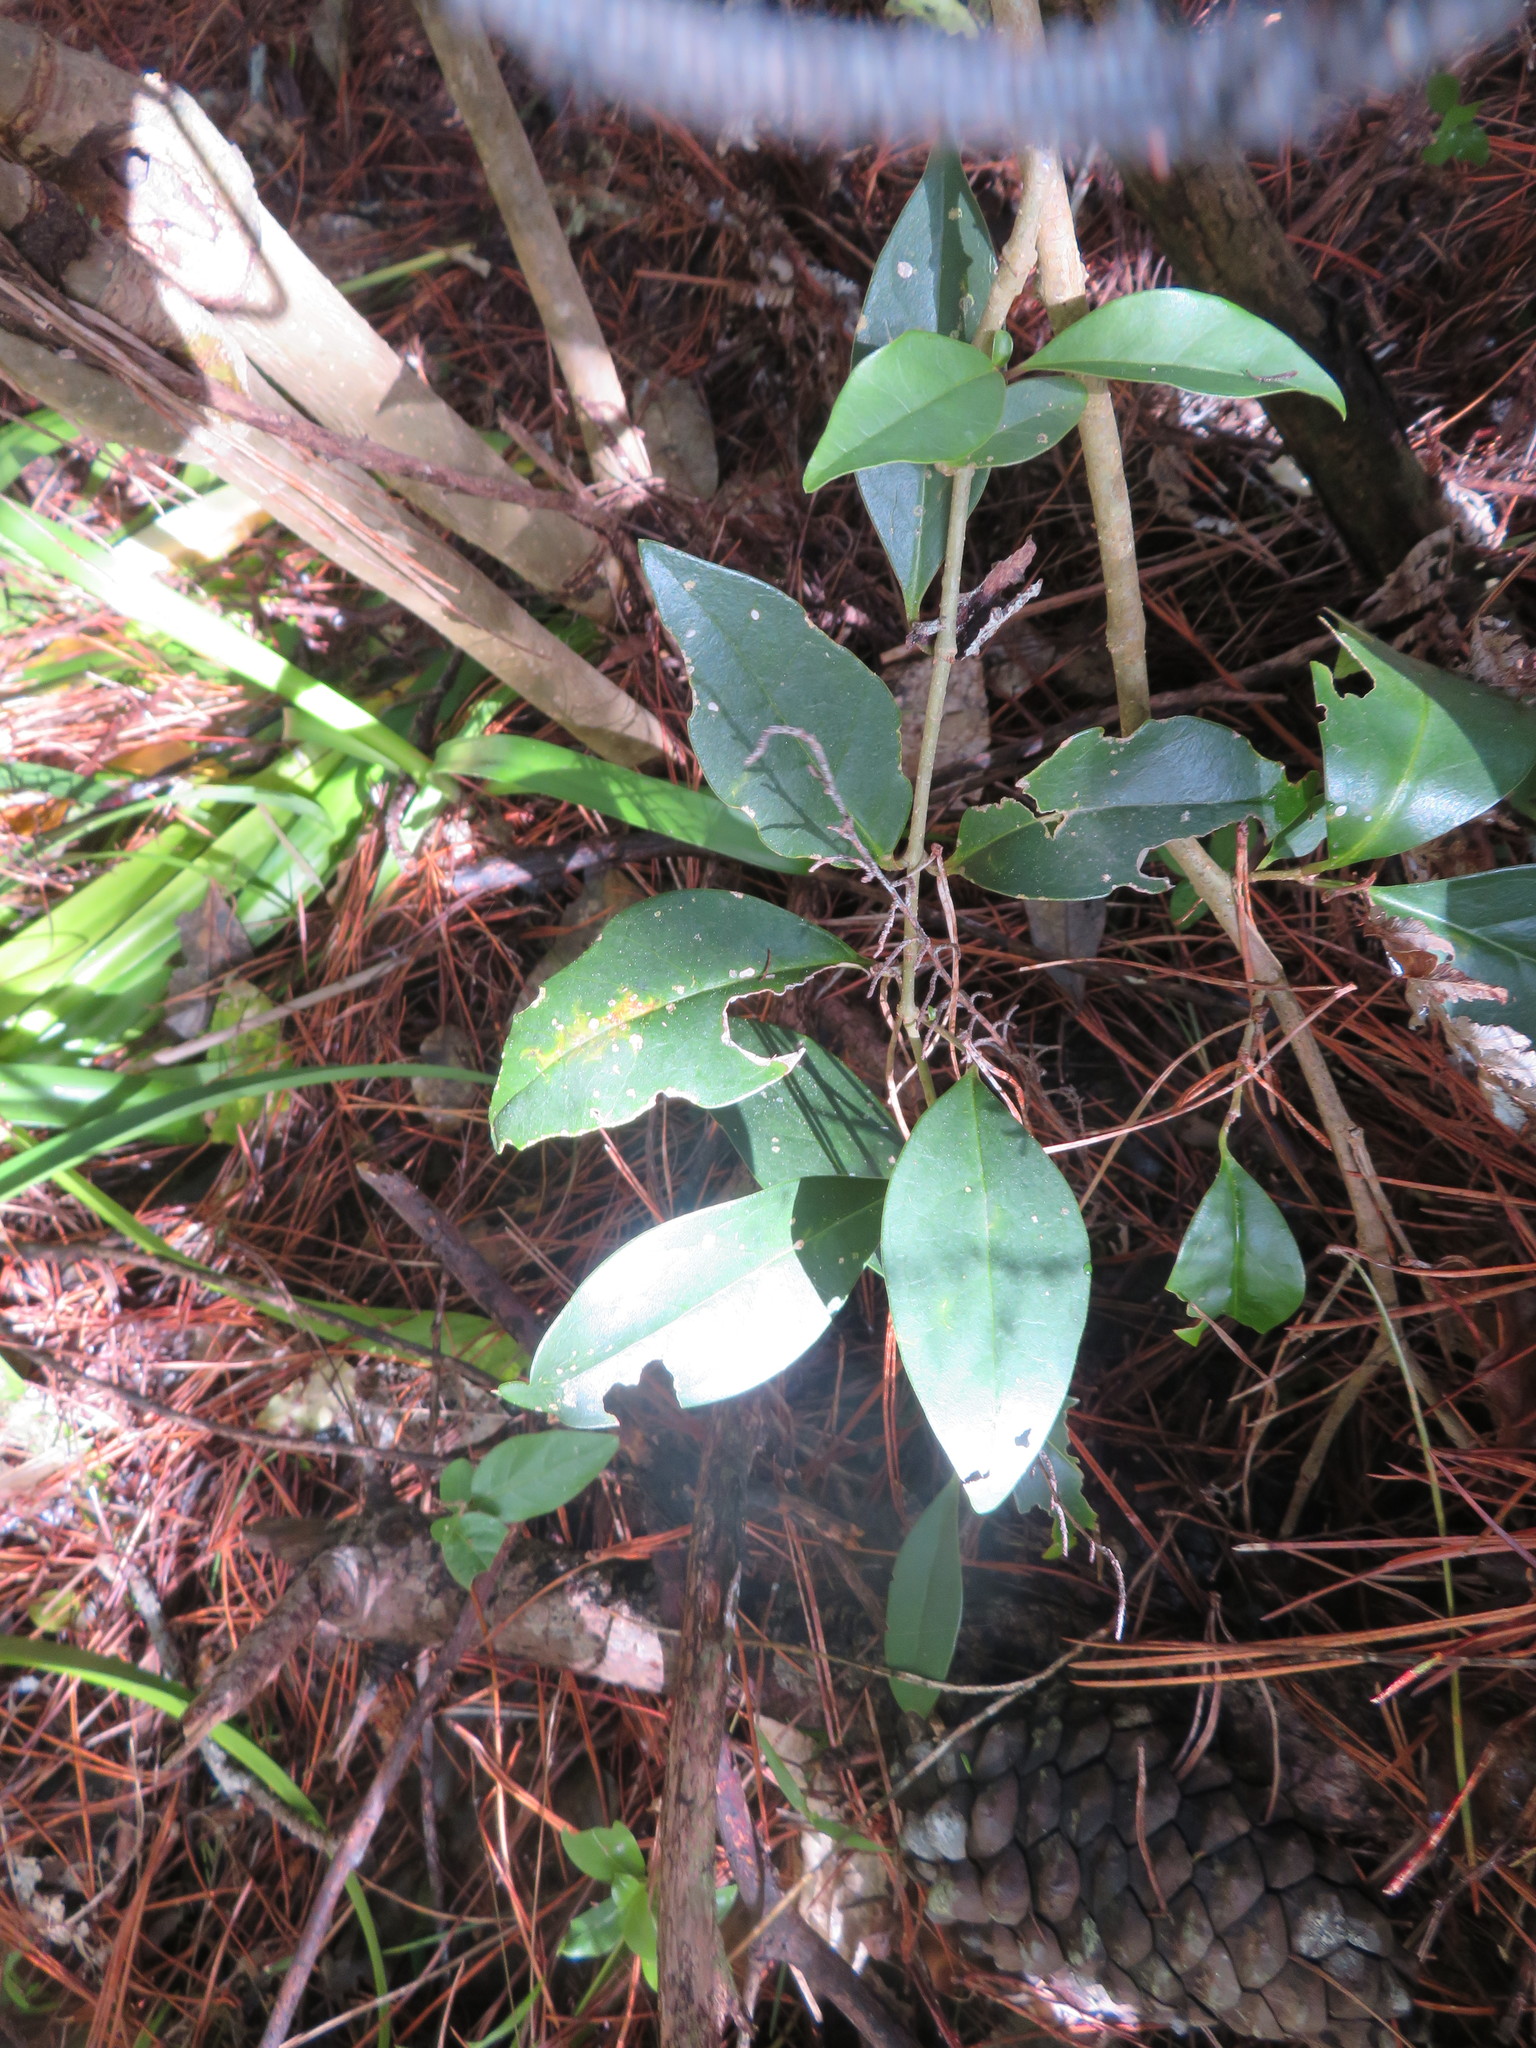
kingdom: Plantae
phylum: Tracheophyta
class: Magnoliopsida
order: Lamiales
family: Oleaceae
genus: Ligustrum
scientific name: Ligustrum lucidum
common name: Glossy privet
